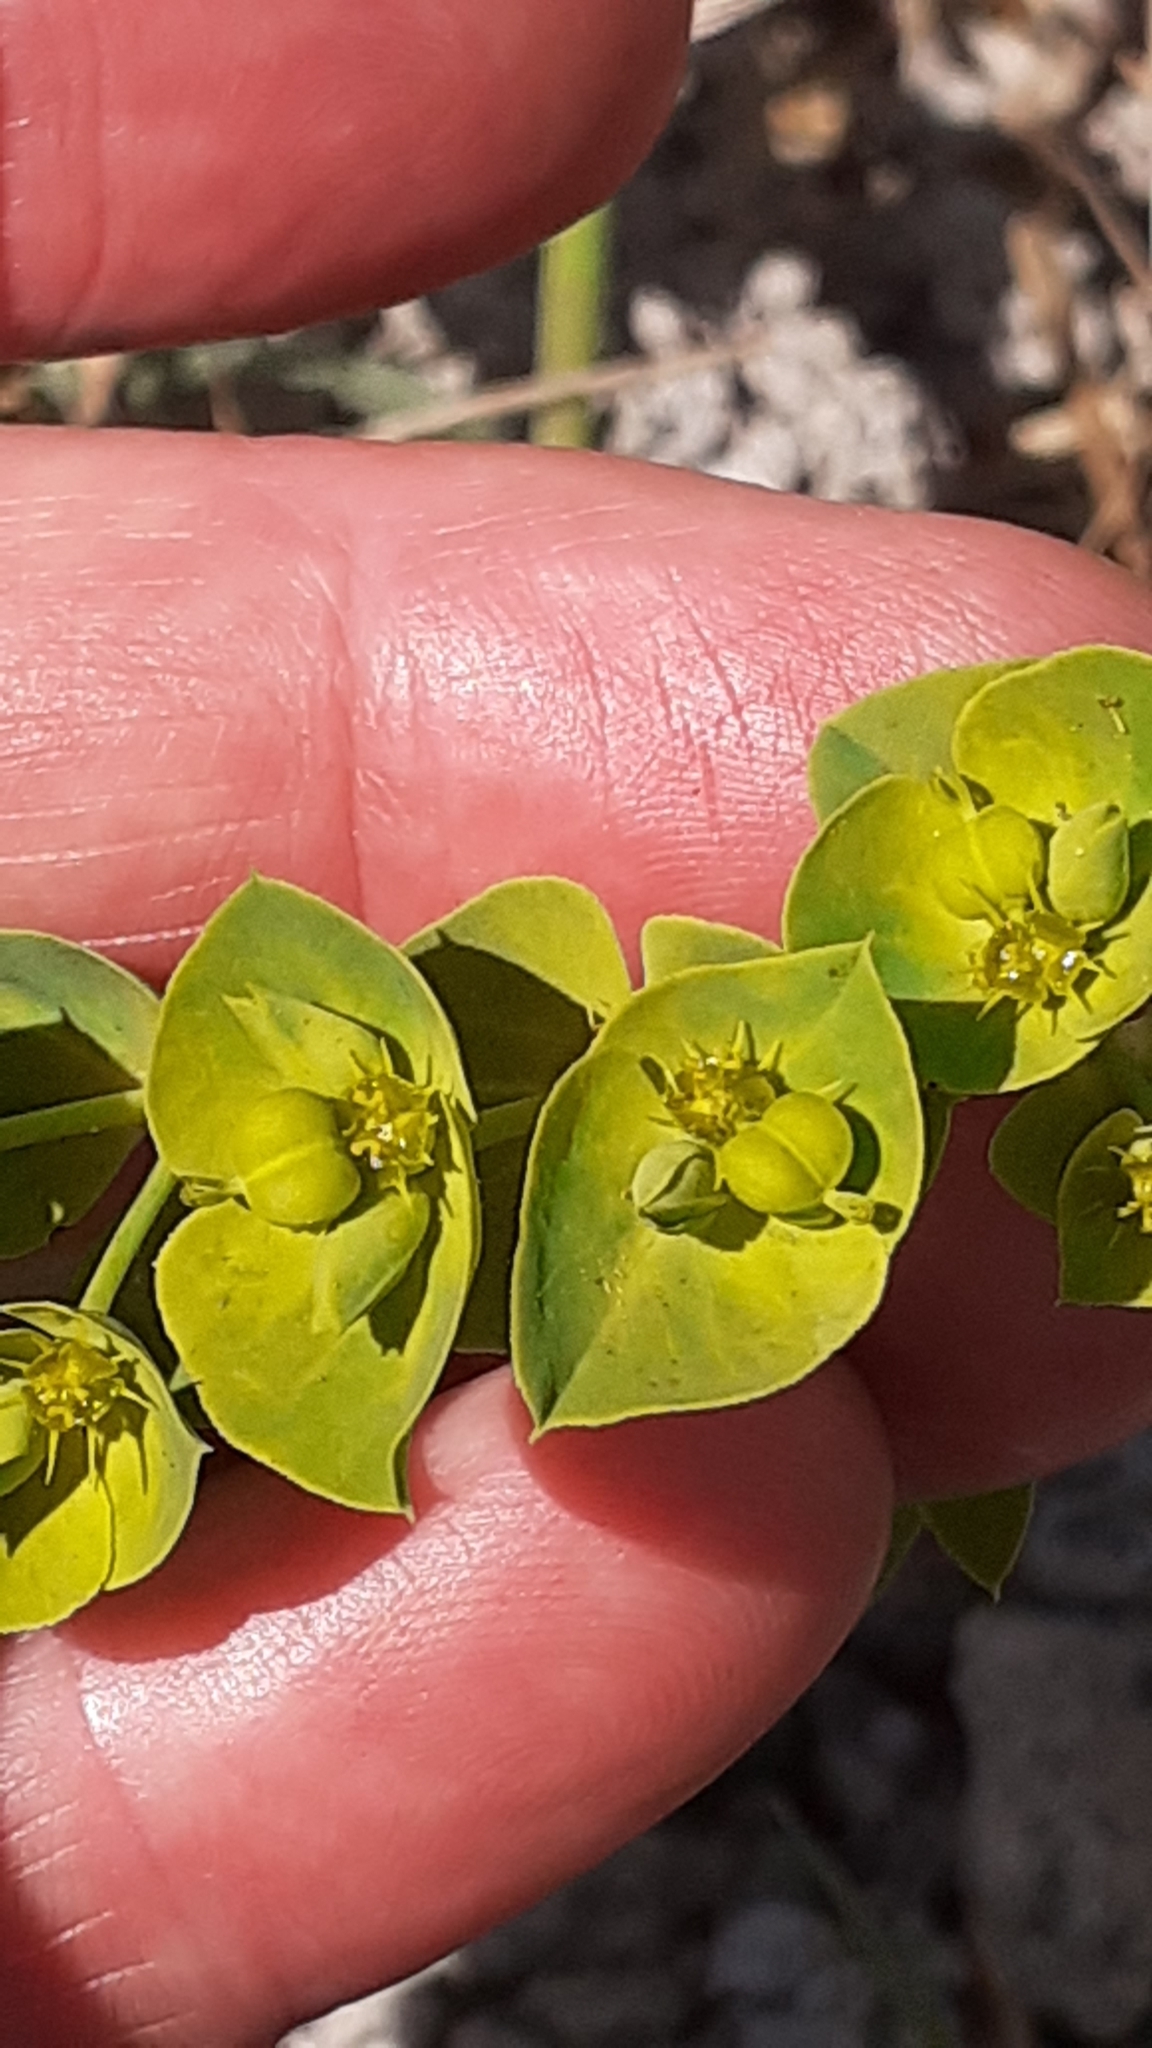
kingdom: Plantae
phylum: Tracheophyta
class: Magnoliopsida
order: Malpighiales
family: Euphorbiaceae
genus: Euphorbia
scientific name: Euphorbia terracina
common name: Geraldton carnation weed
